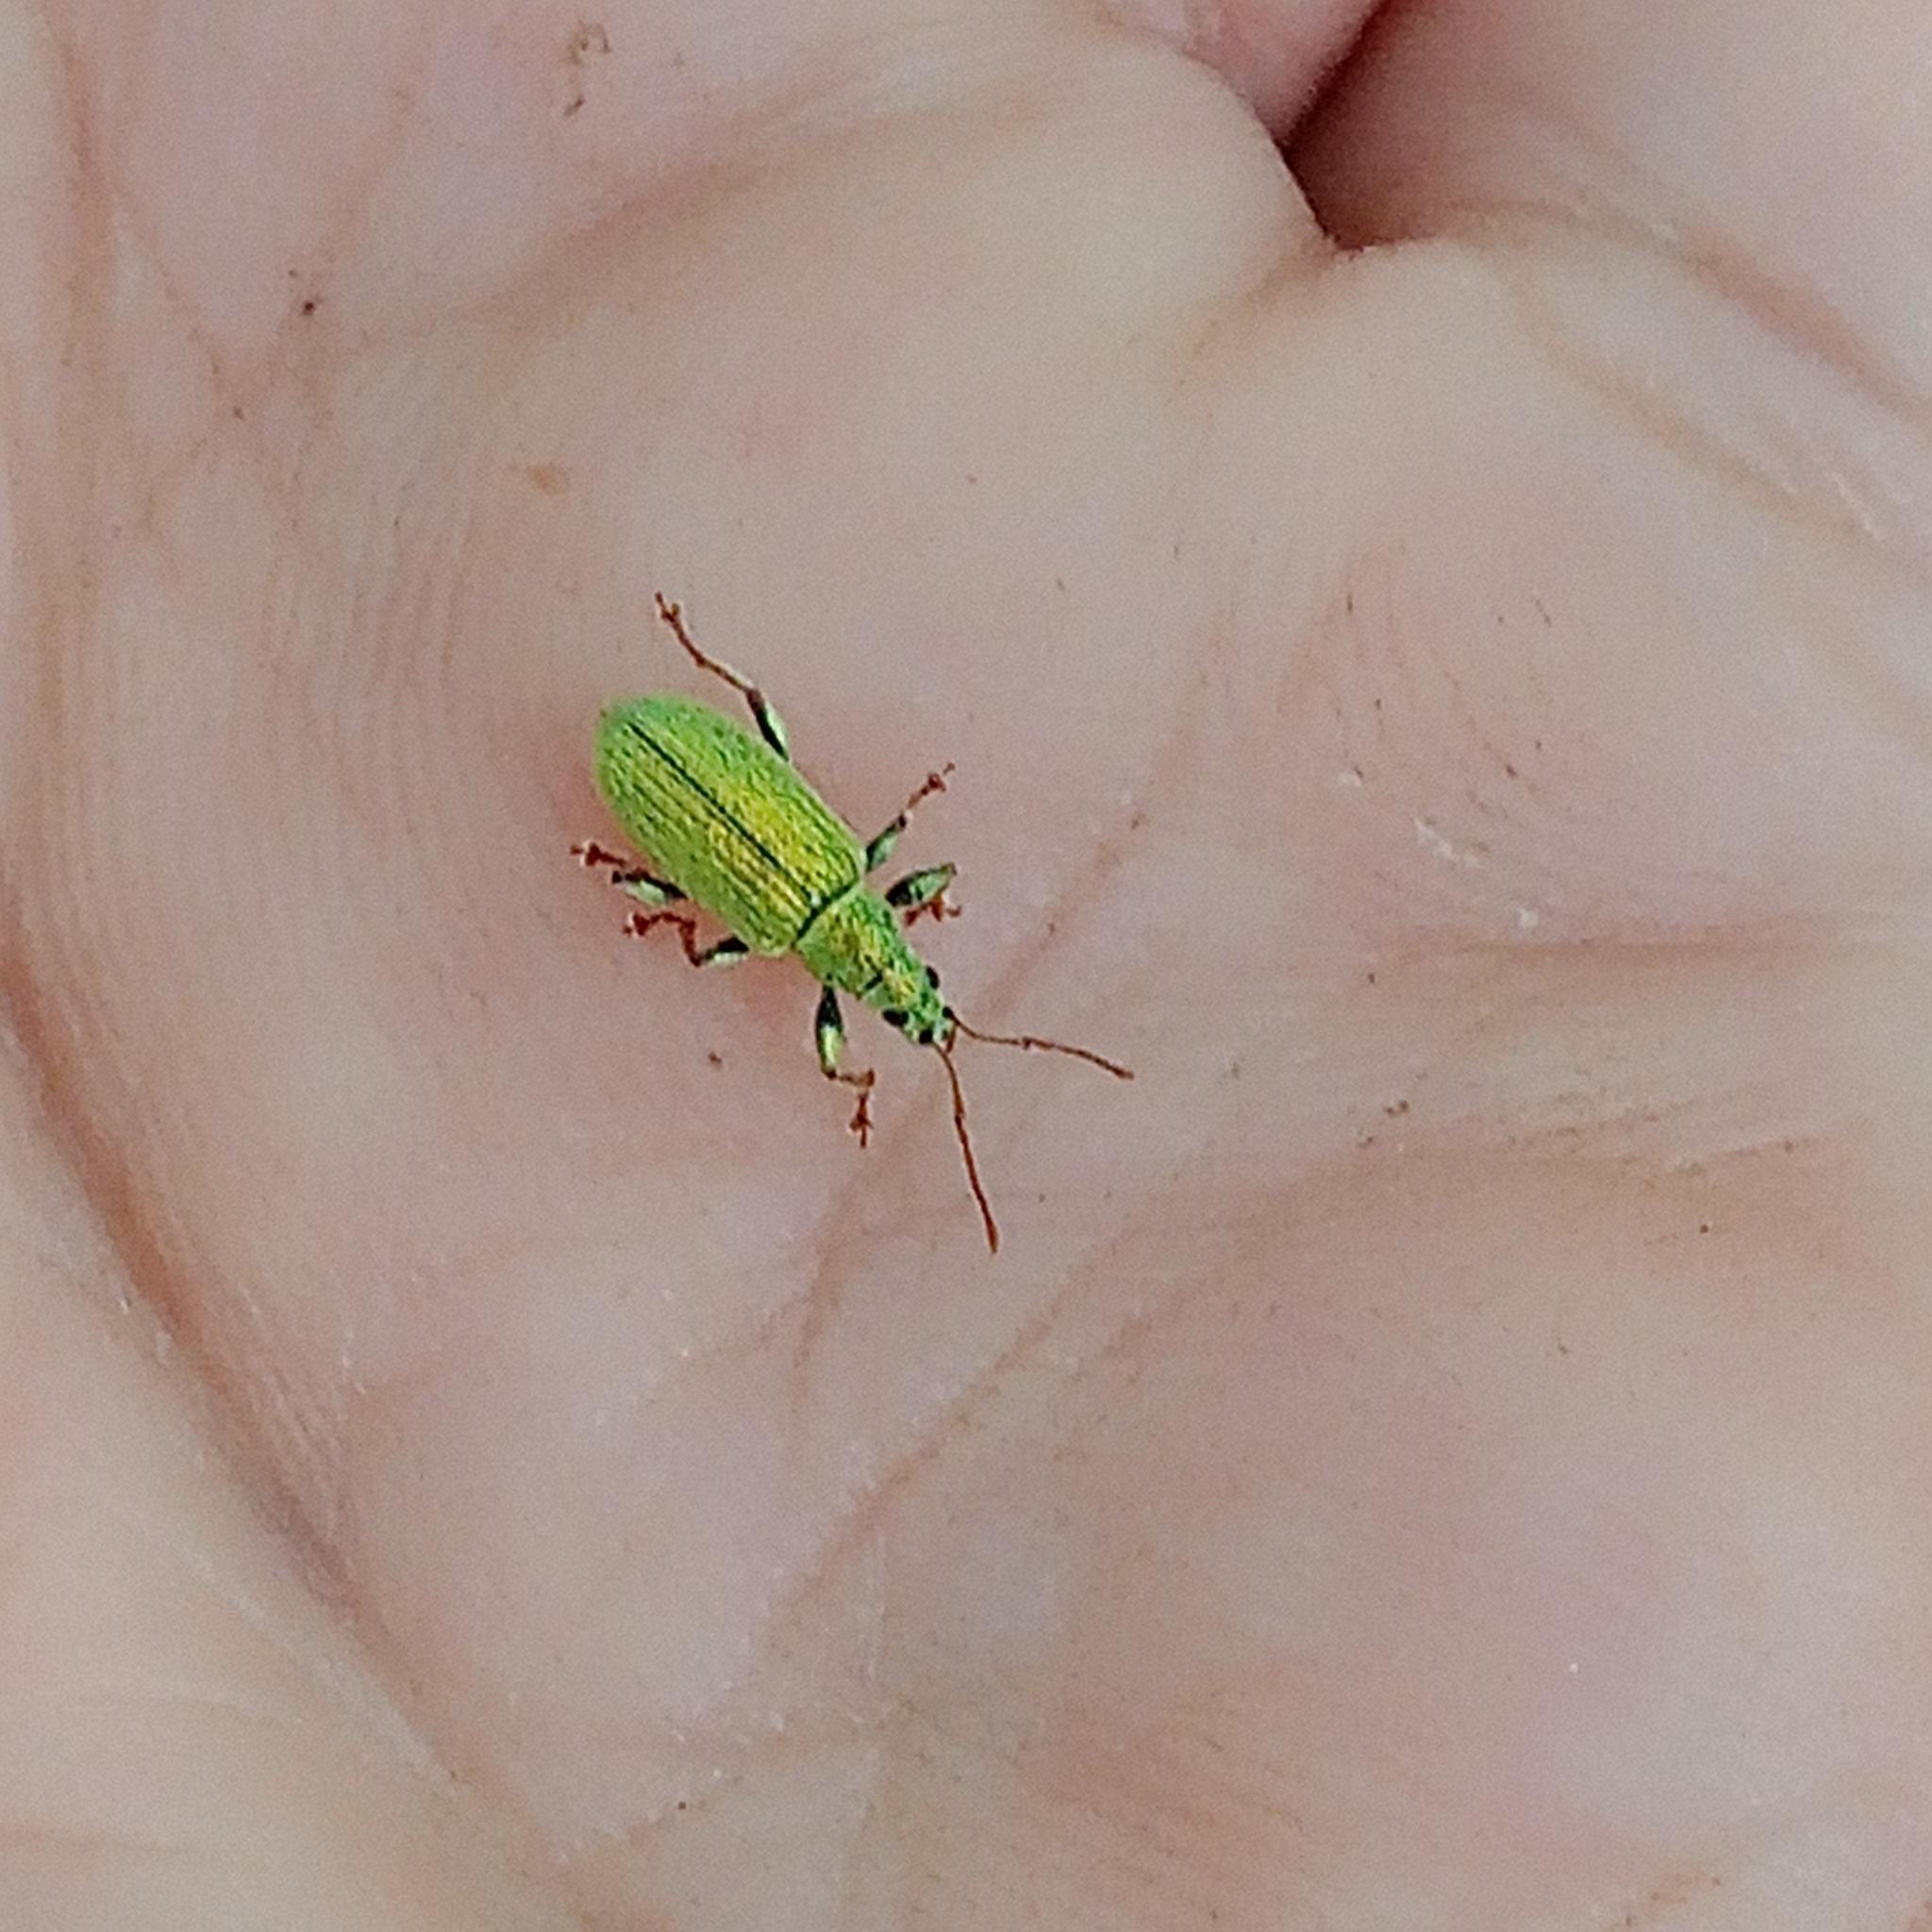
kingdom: Animalia
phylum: Arthropoda
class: Insecta
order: Coleoptera
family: Curculionidae
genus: Phyllobius
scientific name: Phyllobius argentatus
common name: Silver-green leaf weevil
